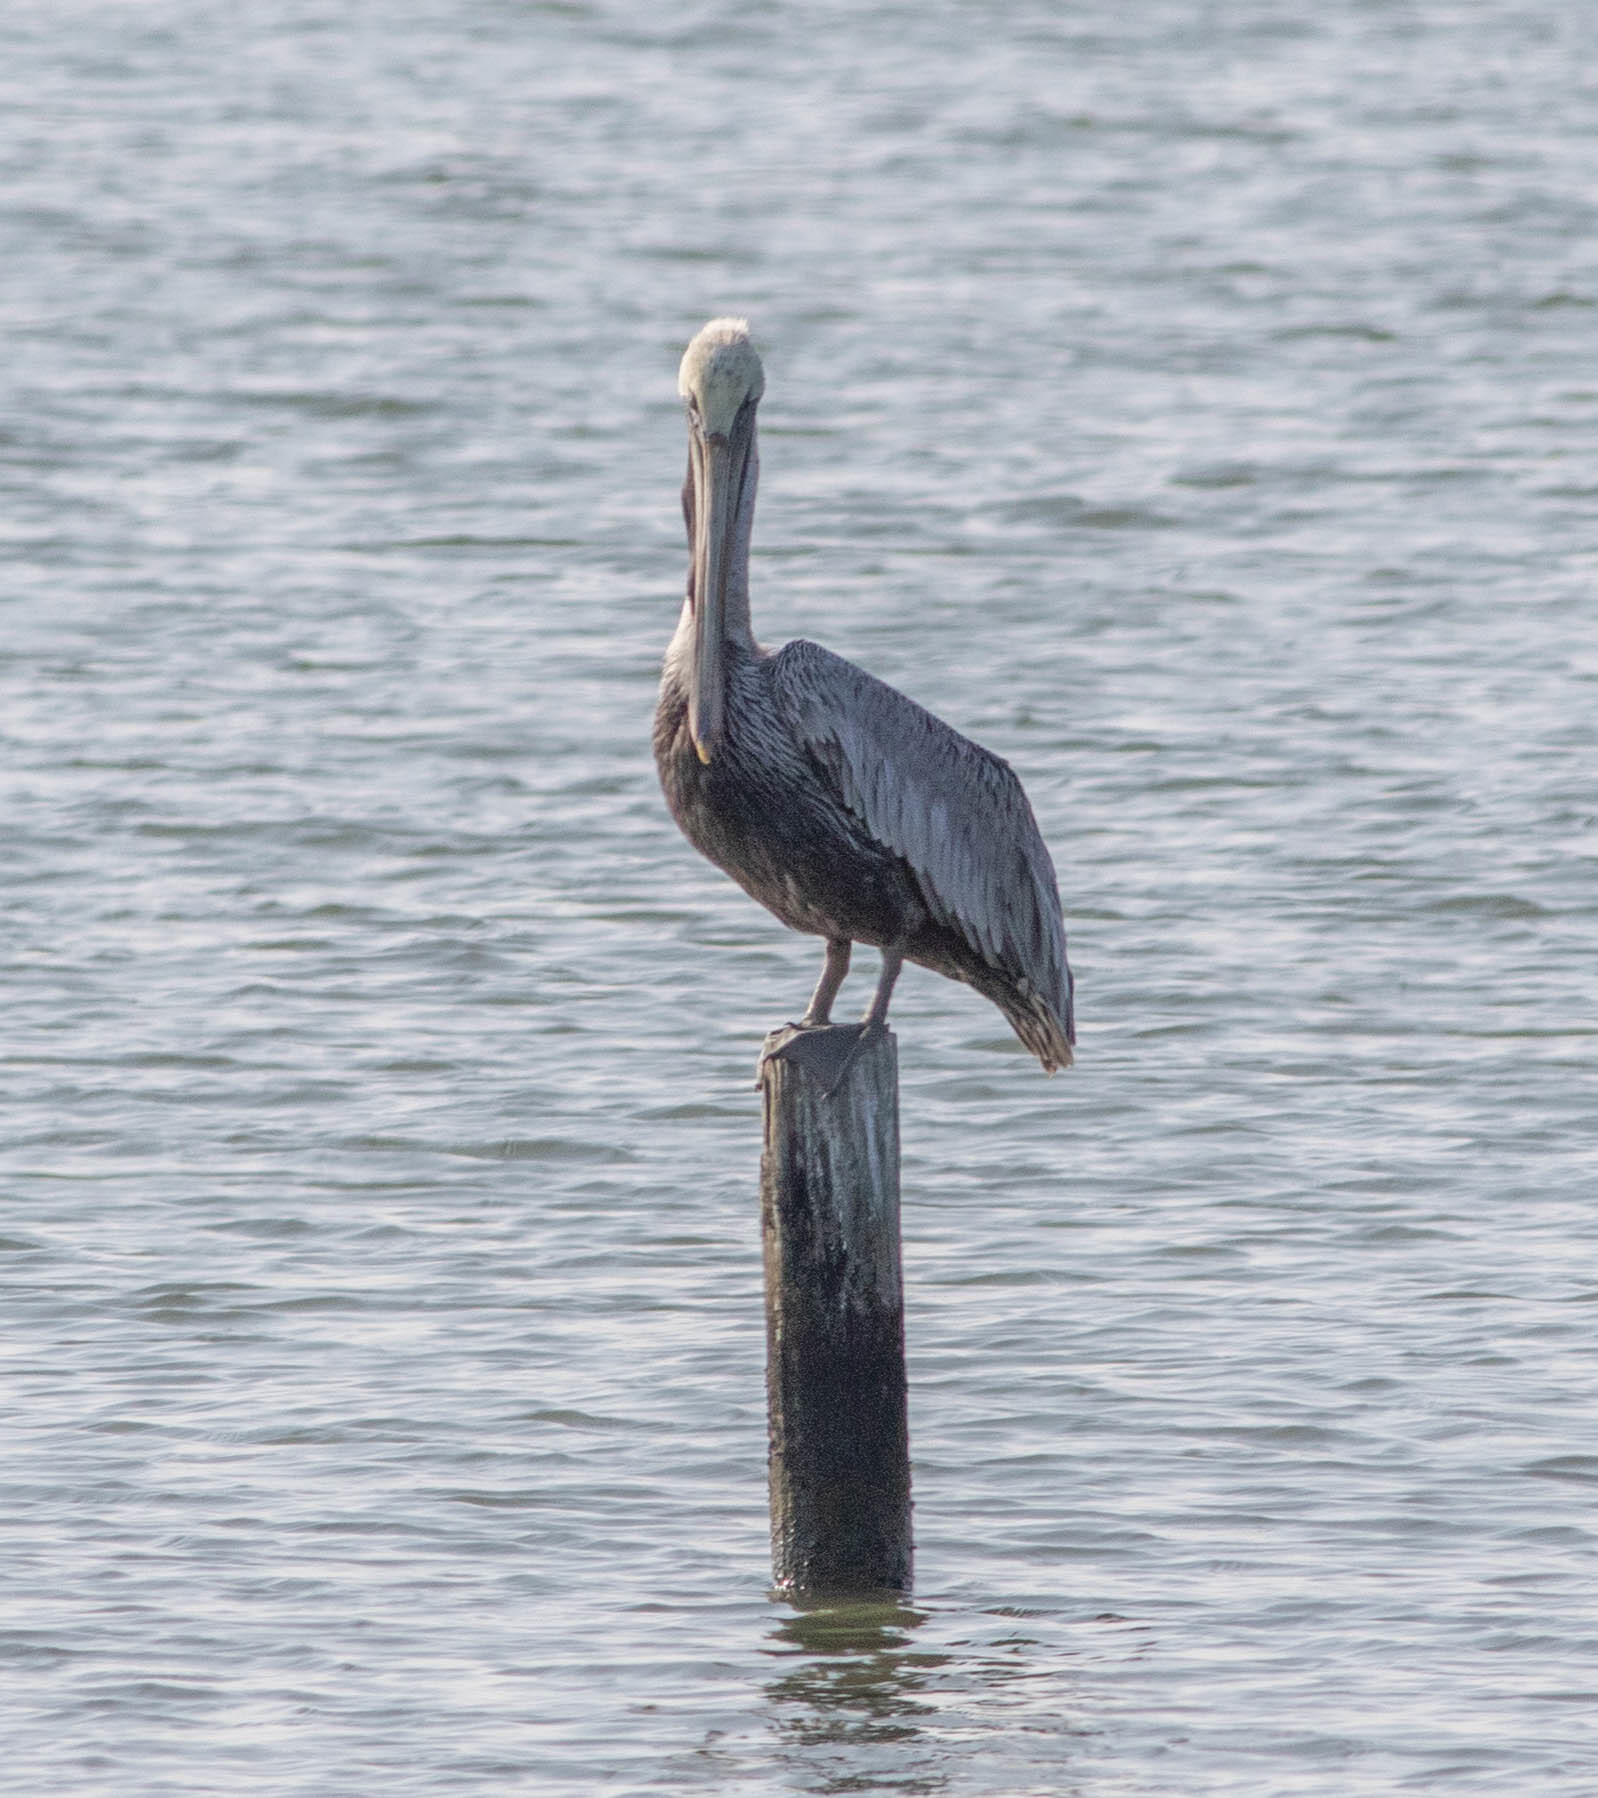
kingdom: Animalia
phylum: Chordata
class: Aves
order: Pelecaniformes
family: Pelecanidae
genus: Pelecanus
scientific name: Pelecanus occidentalis
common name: Brown pelican
